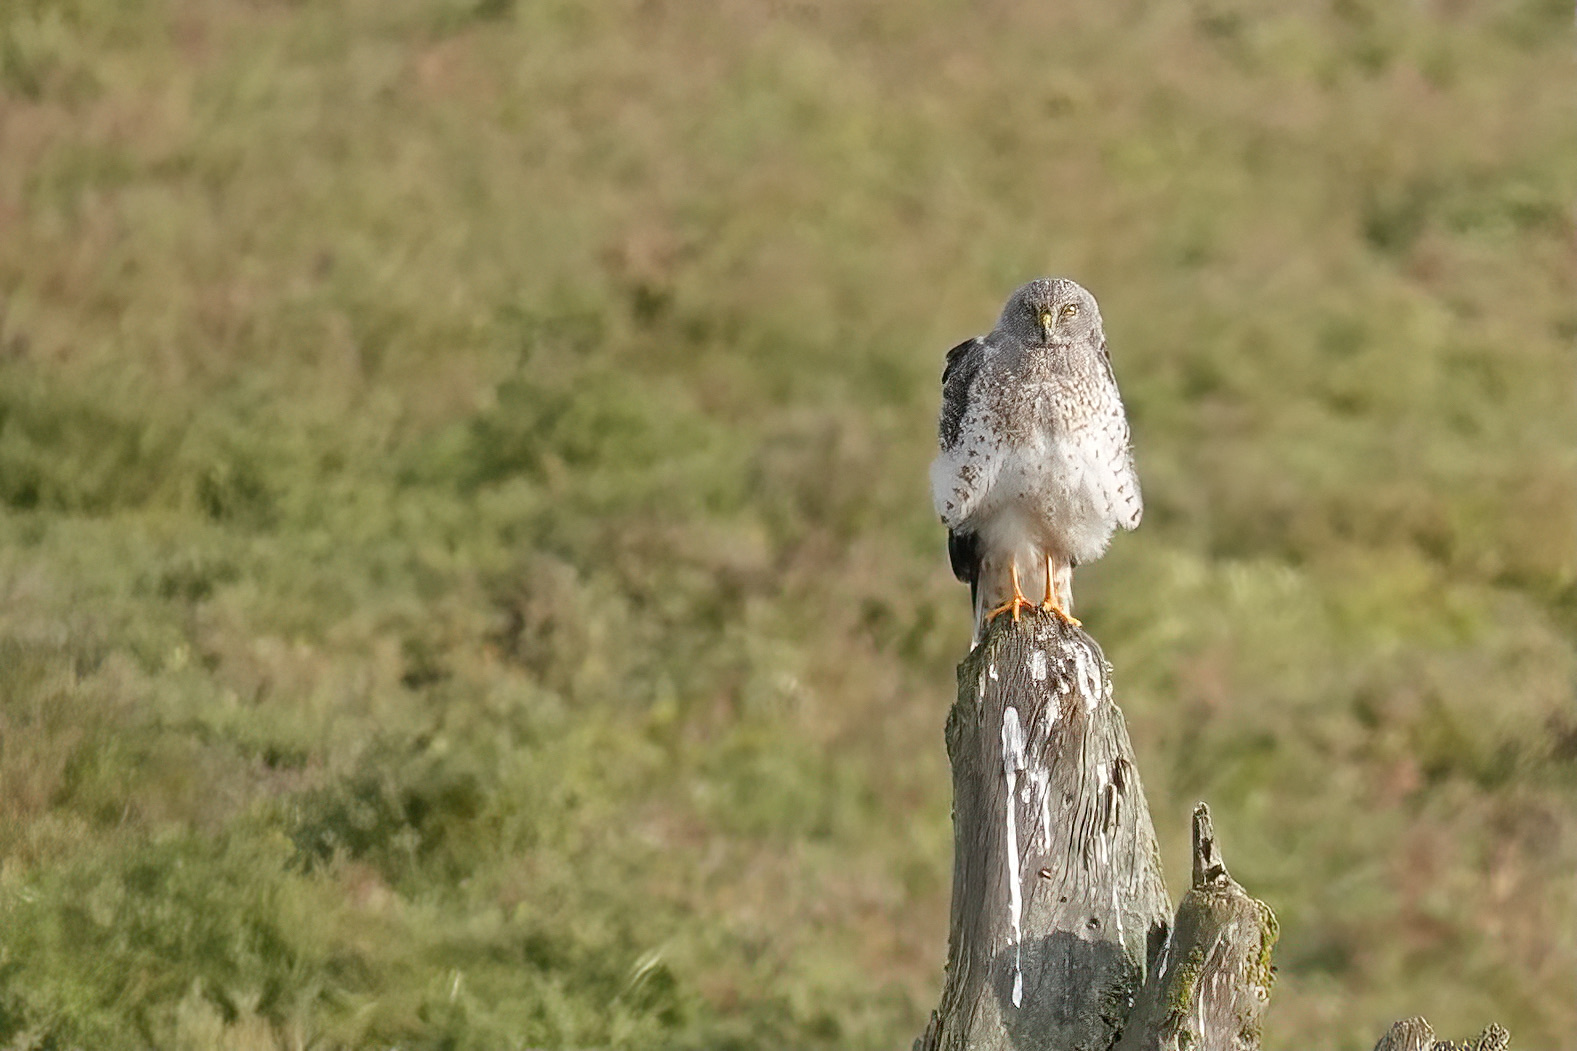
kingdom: Animalia
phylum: Chordata
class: Aves
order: Accipitriformes
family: Accipitridae
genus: Circus
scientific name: Circus cyaneus
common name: Hen harrier
